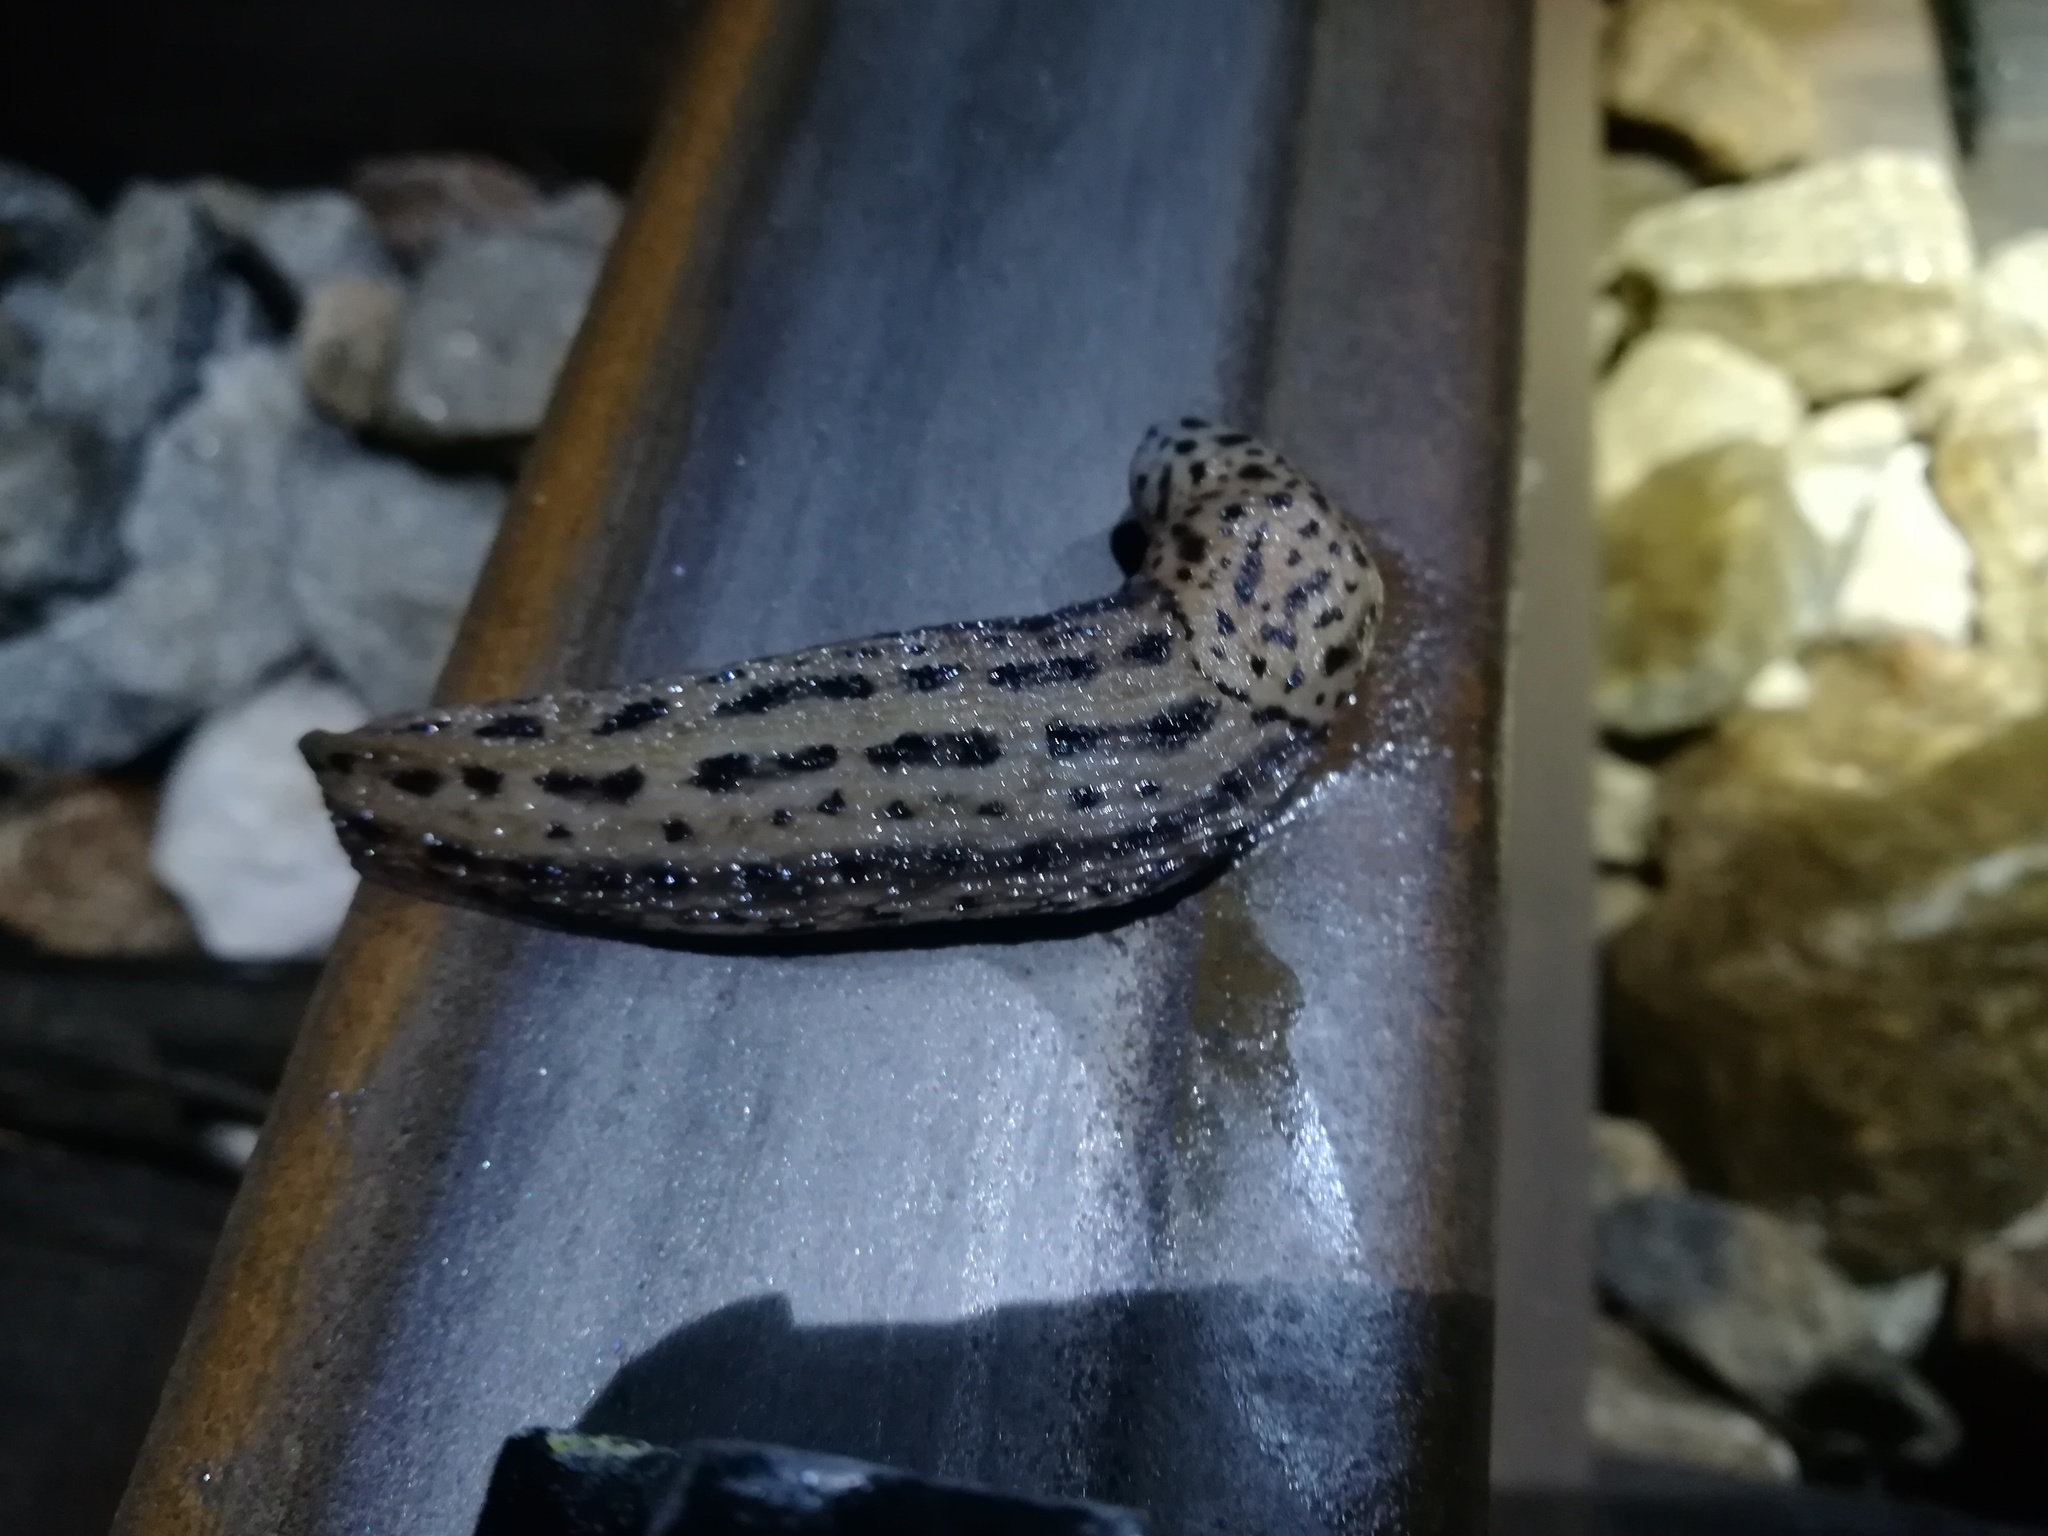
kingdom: Animalia
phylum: Mollusca
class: Gastropoda
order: Stylommatophora
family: Limacidae
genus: Limax
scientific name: Limax maximus
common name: Great grey slug
